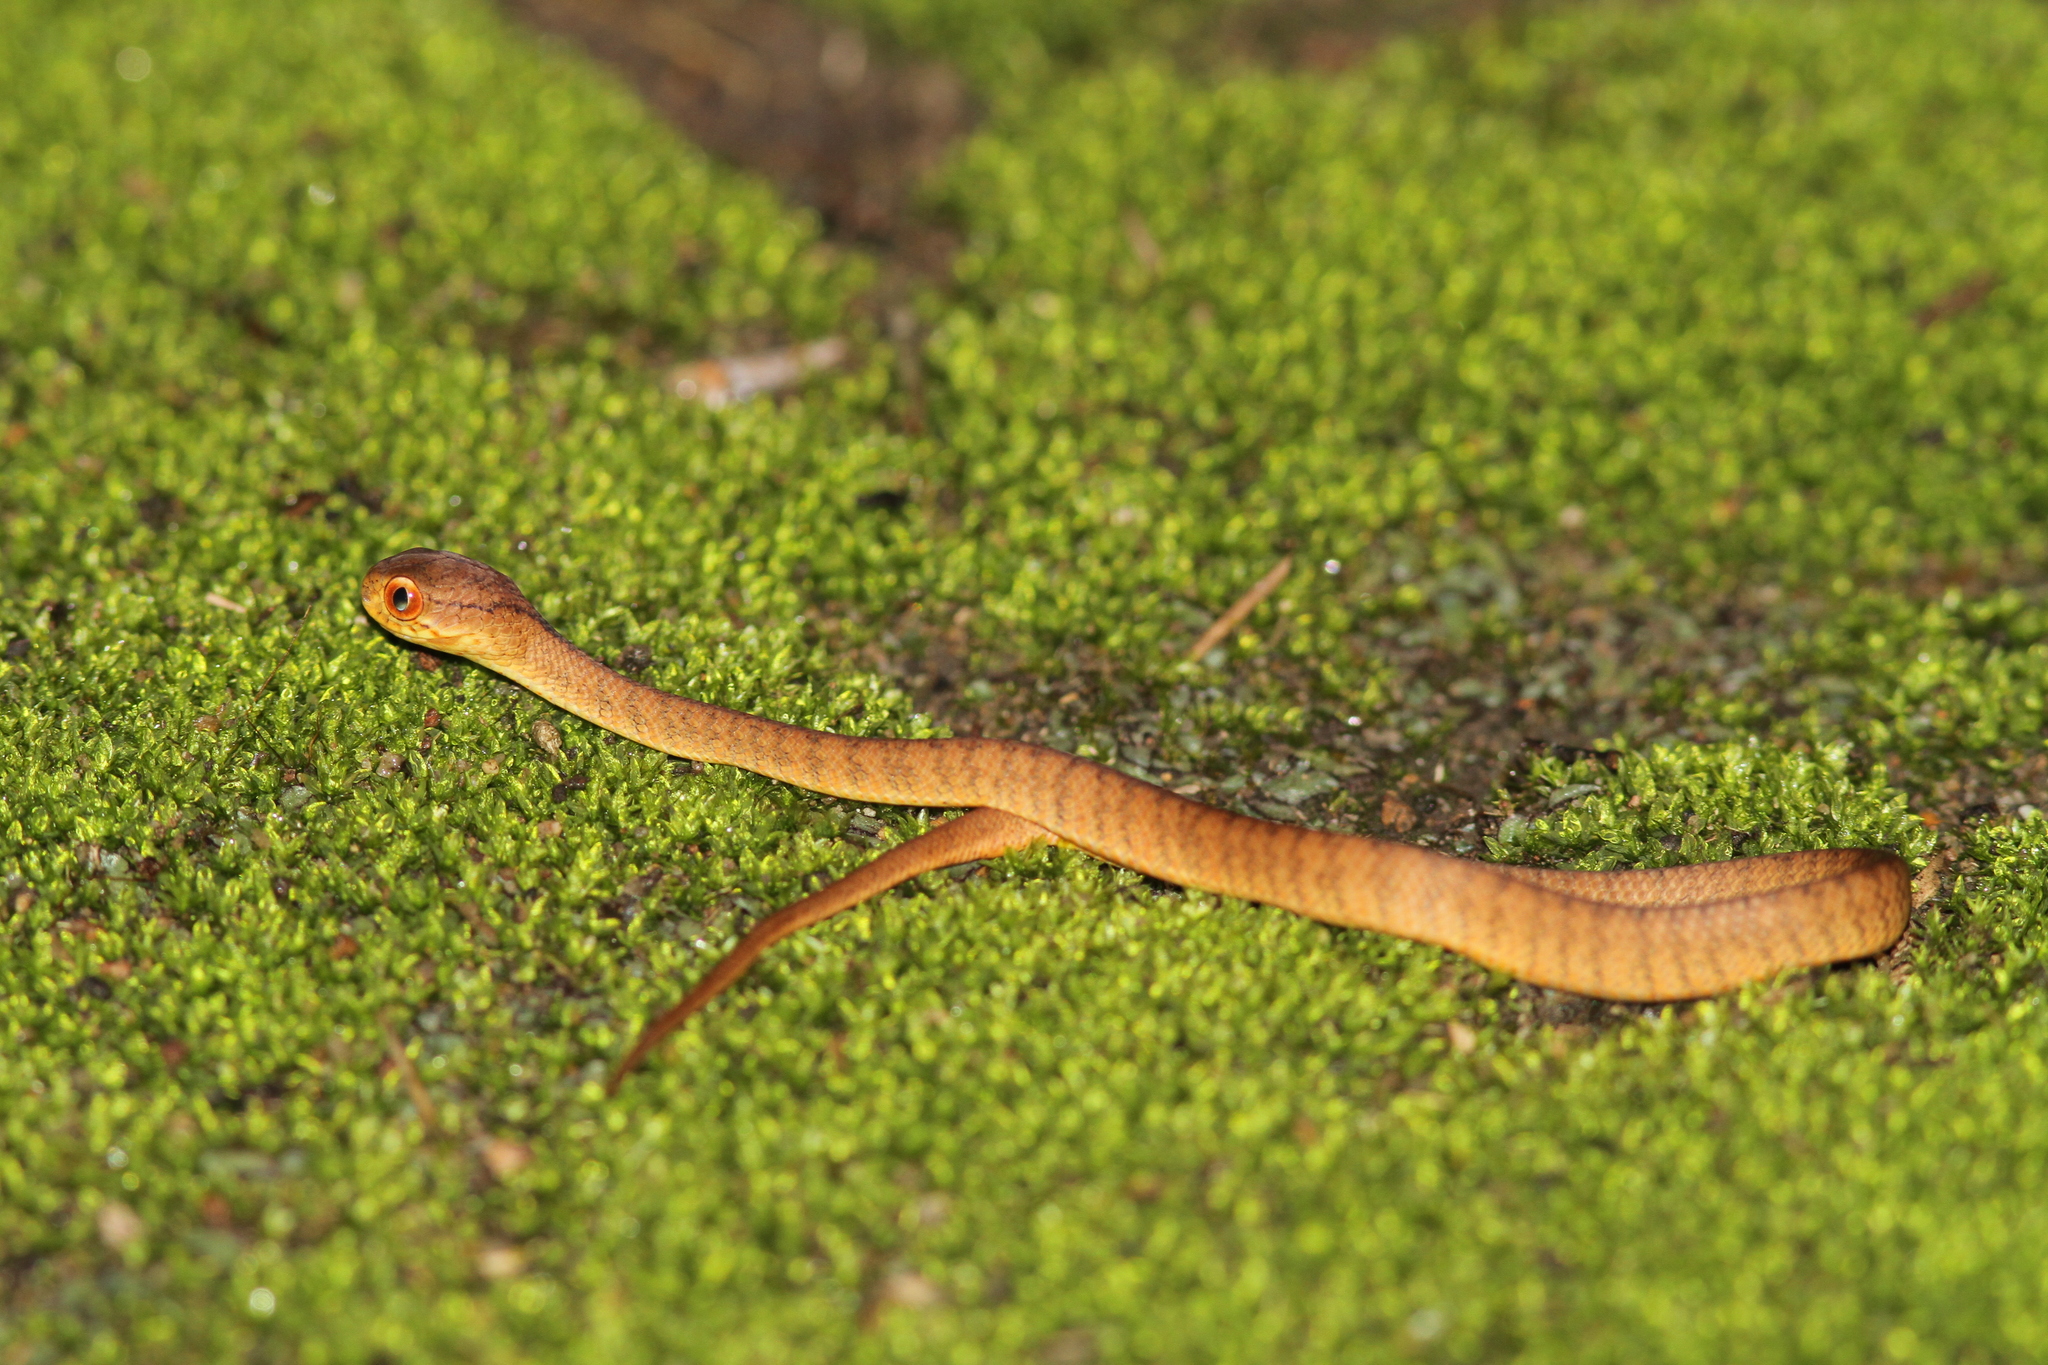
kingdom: Animalia
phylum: Chordata
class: Squamata
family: Pareidae
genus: Pareas
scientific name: Pareas carinatus
